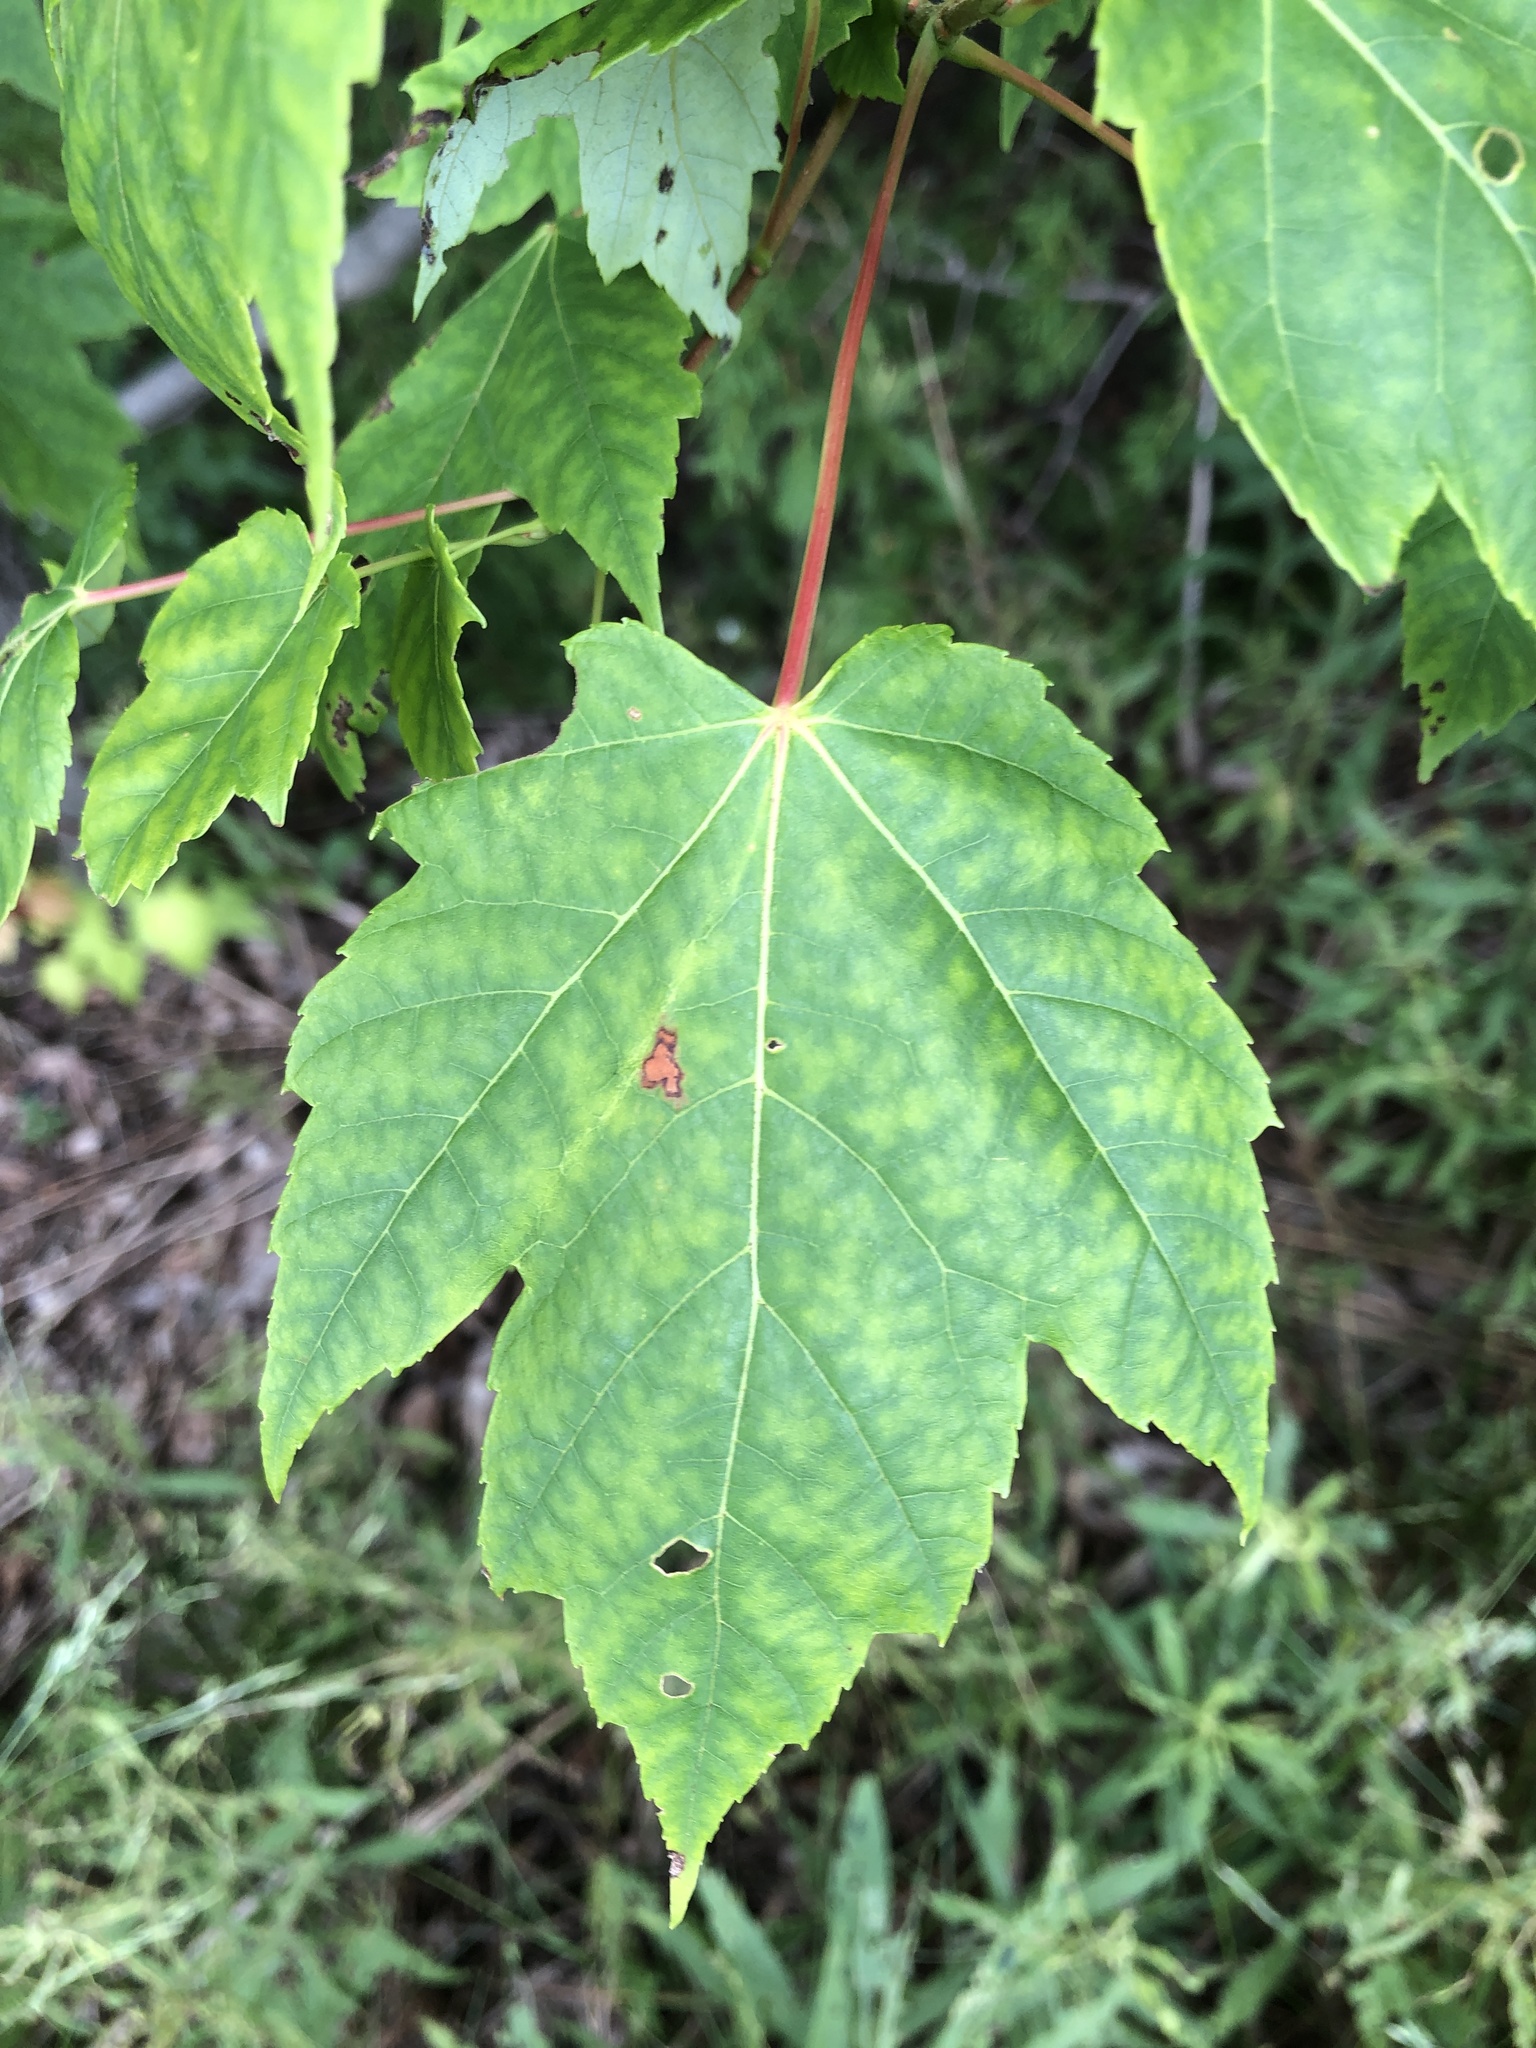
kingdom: Plantae
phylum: Tracheophyta
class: Magnoliopsida
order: Sapindales
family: Sapindaceae
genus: Acer
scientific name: Acer rubrum
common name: Red maple
